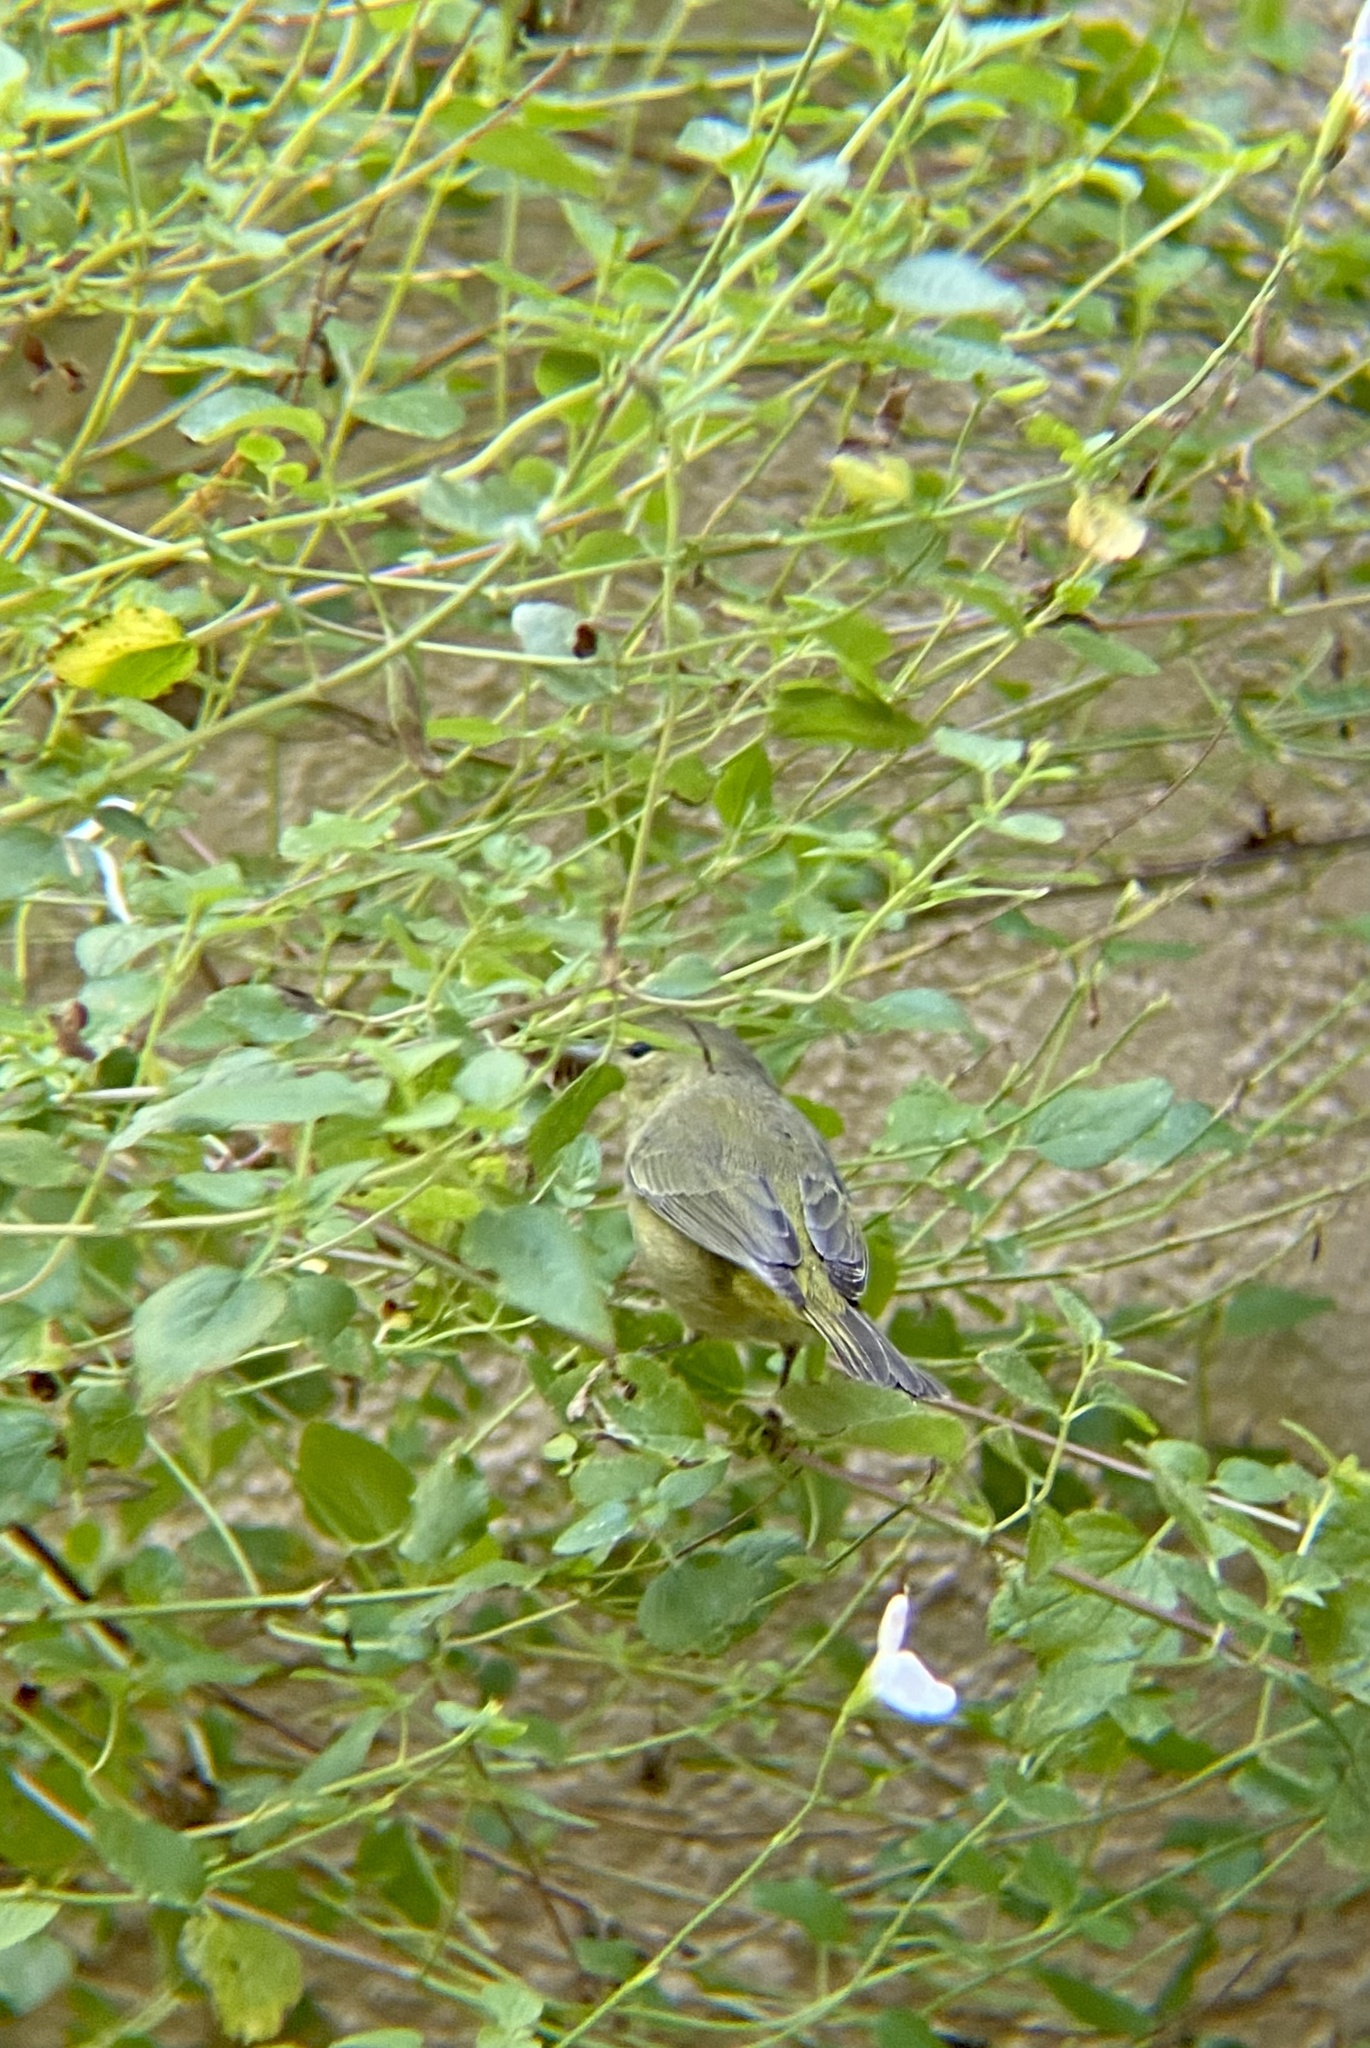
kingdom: Animalia
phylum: Chordata
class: Aves
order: Passeriformes
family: Parulidae
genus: Leiothlypis
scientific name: Leiothlypis celata
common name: Orange-crowned warbler
